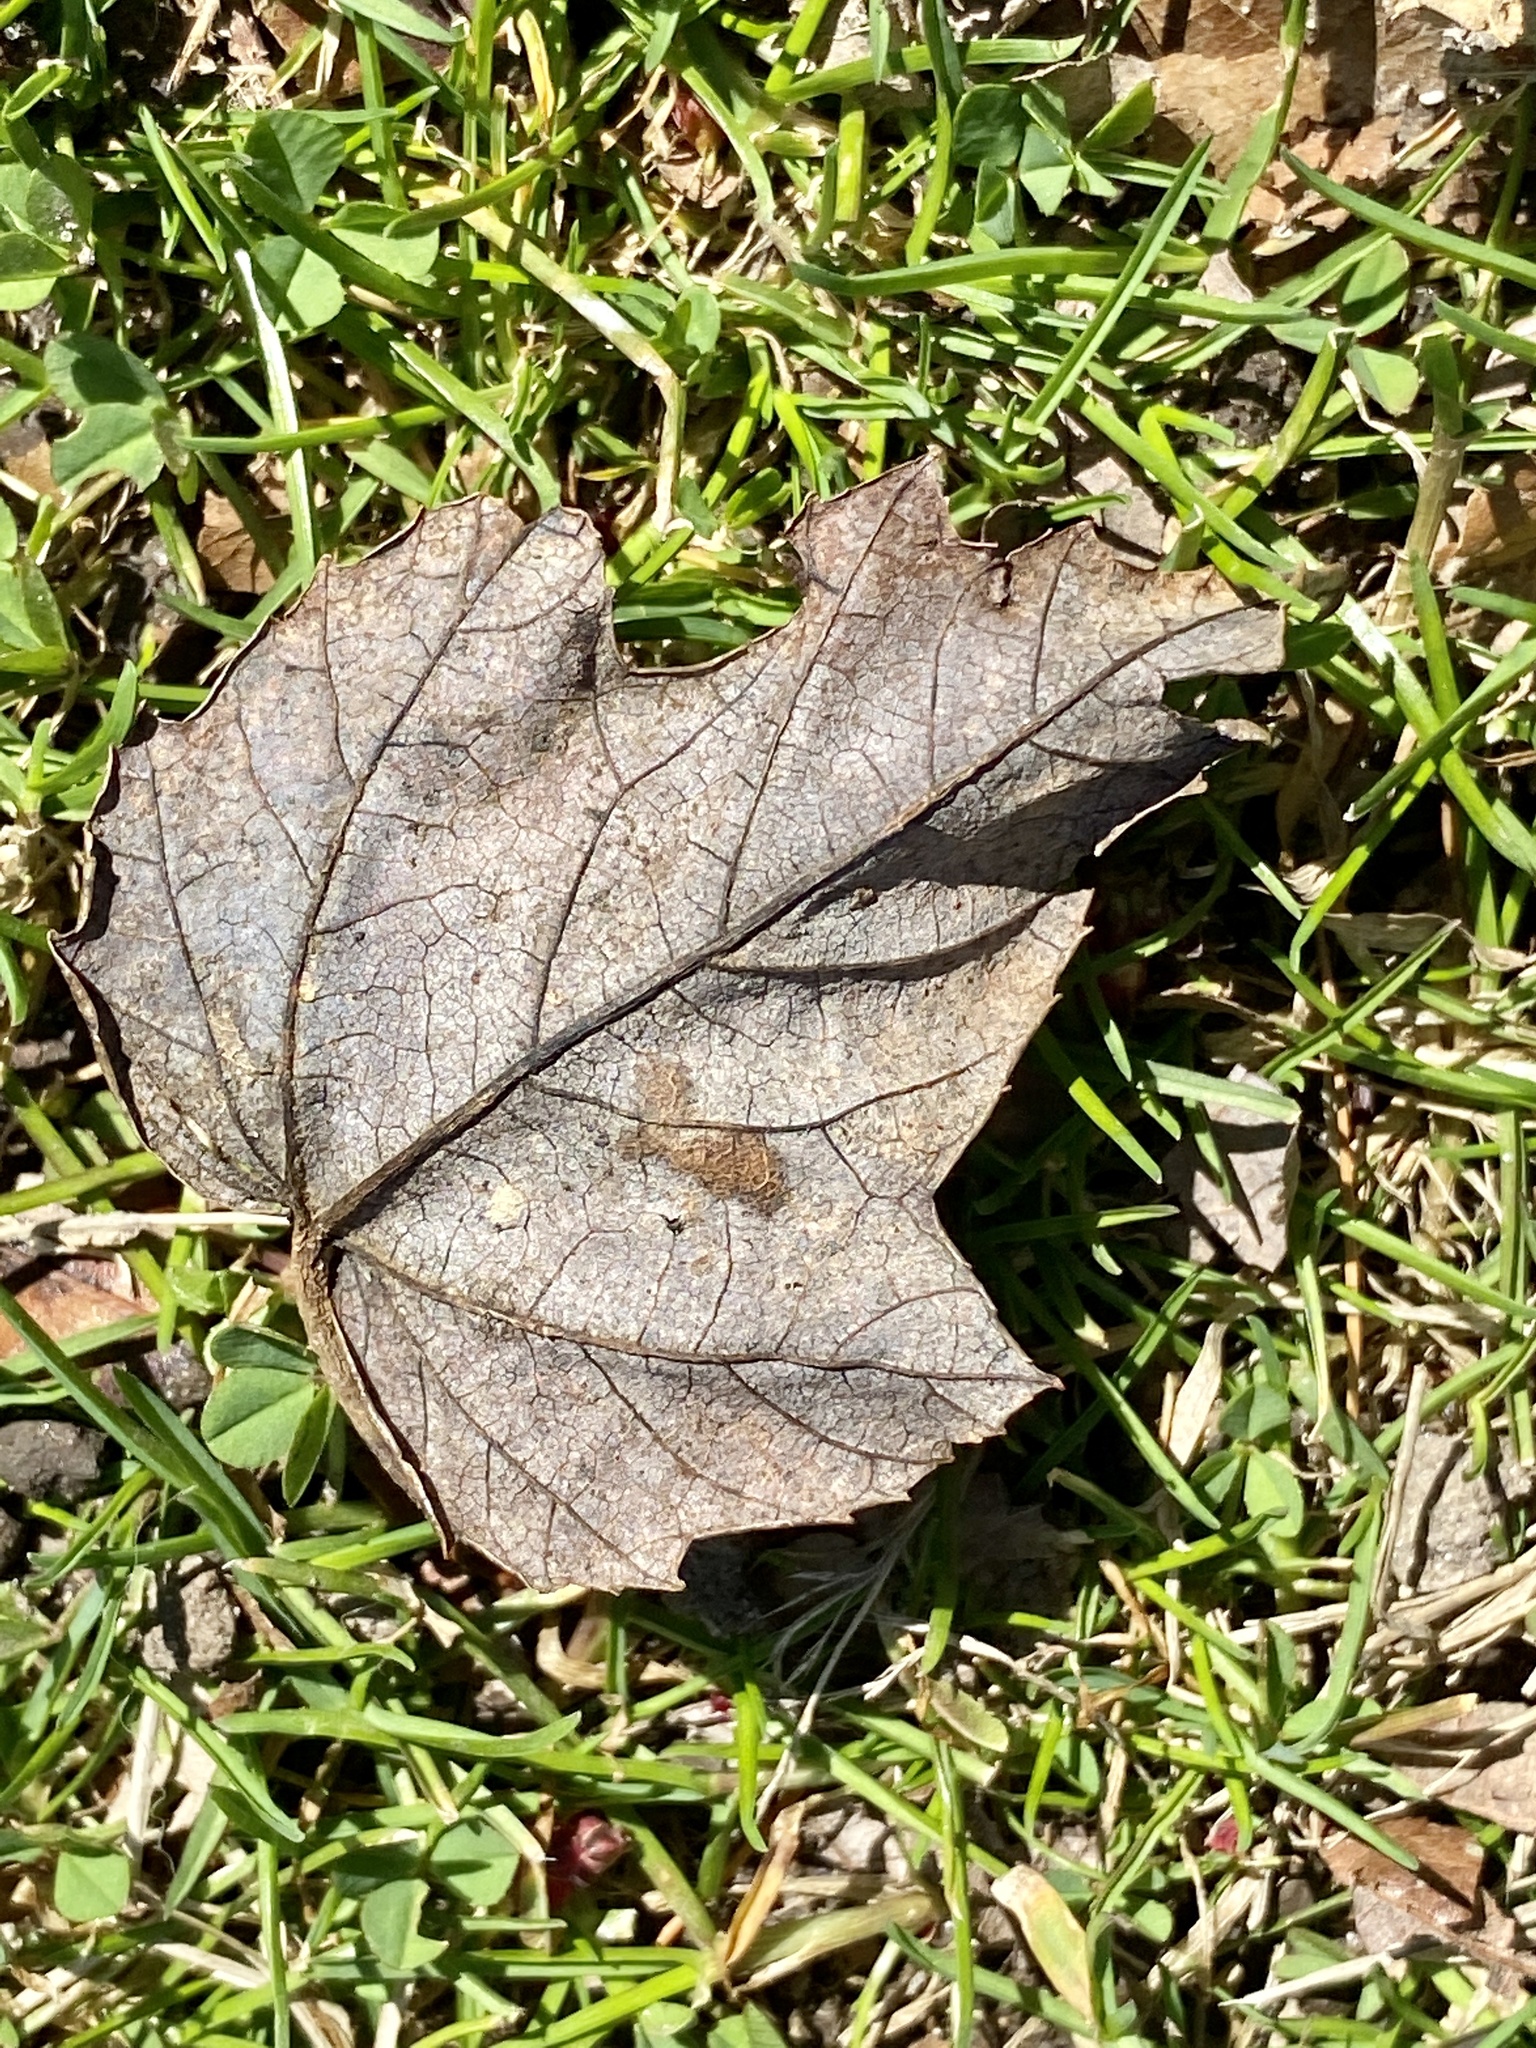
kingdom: Plantae
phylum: Tracheophyta
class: Magnoliopsida
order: Sapindales
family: Sapindaceae
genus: Acer
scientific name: Acer rubrum
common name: Red maple
